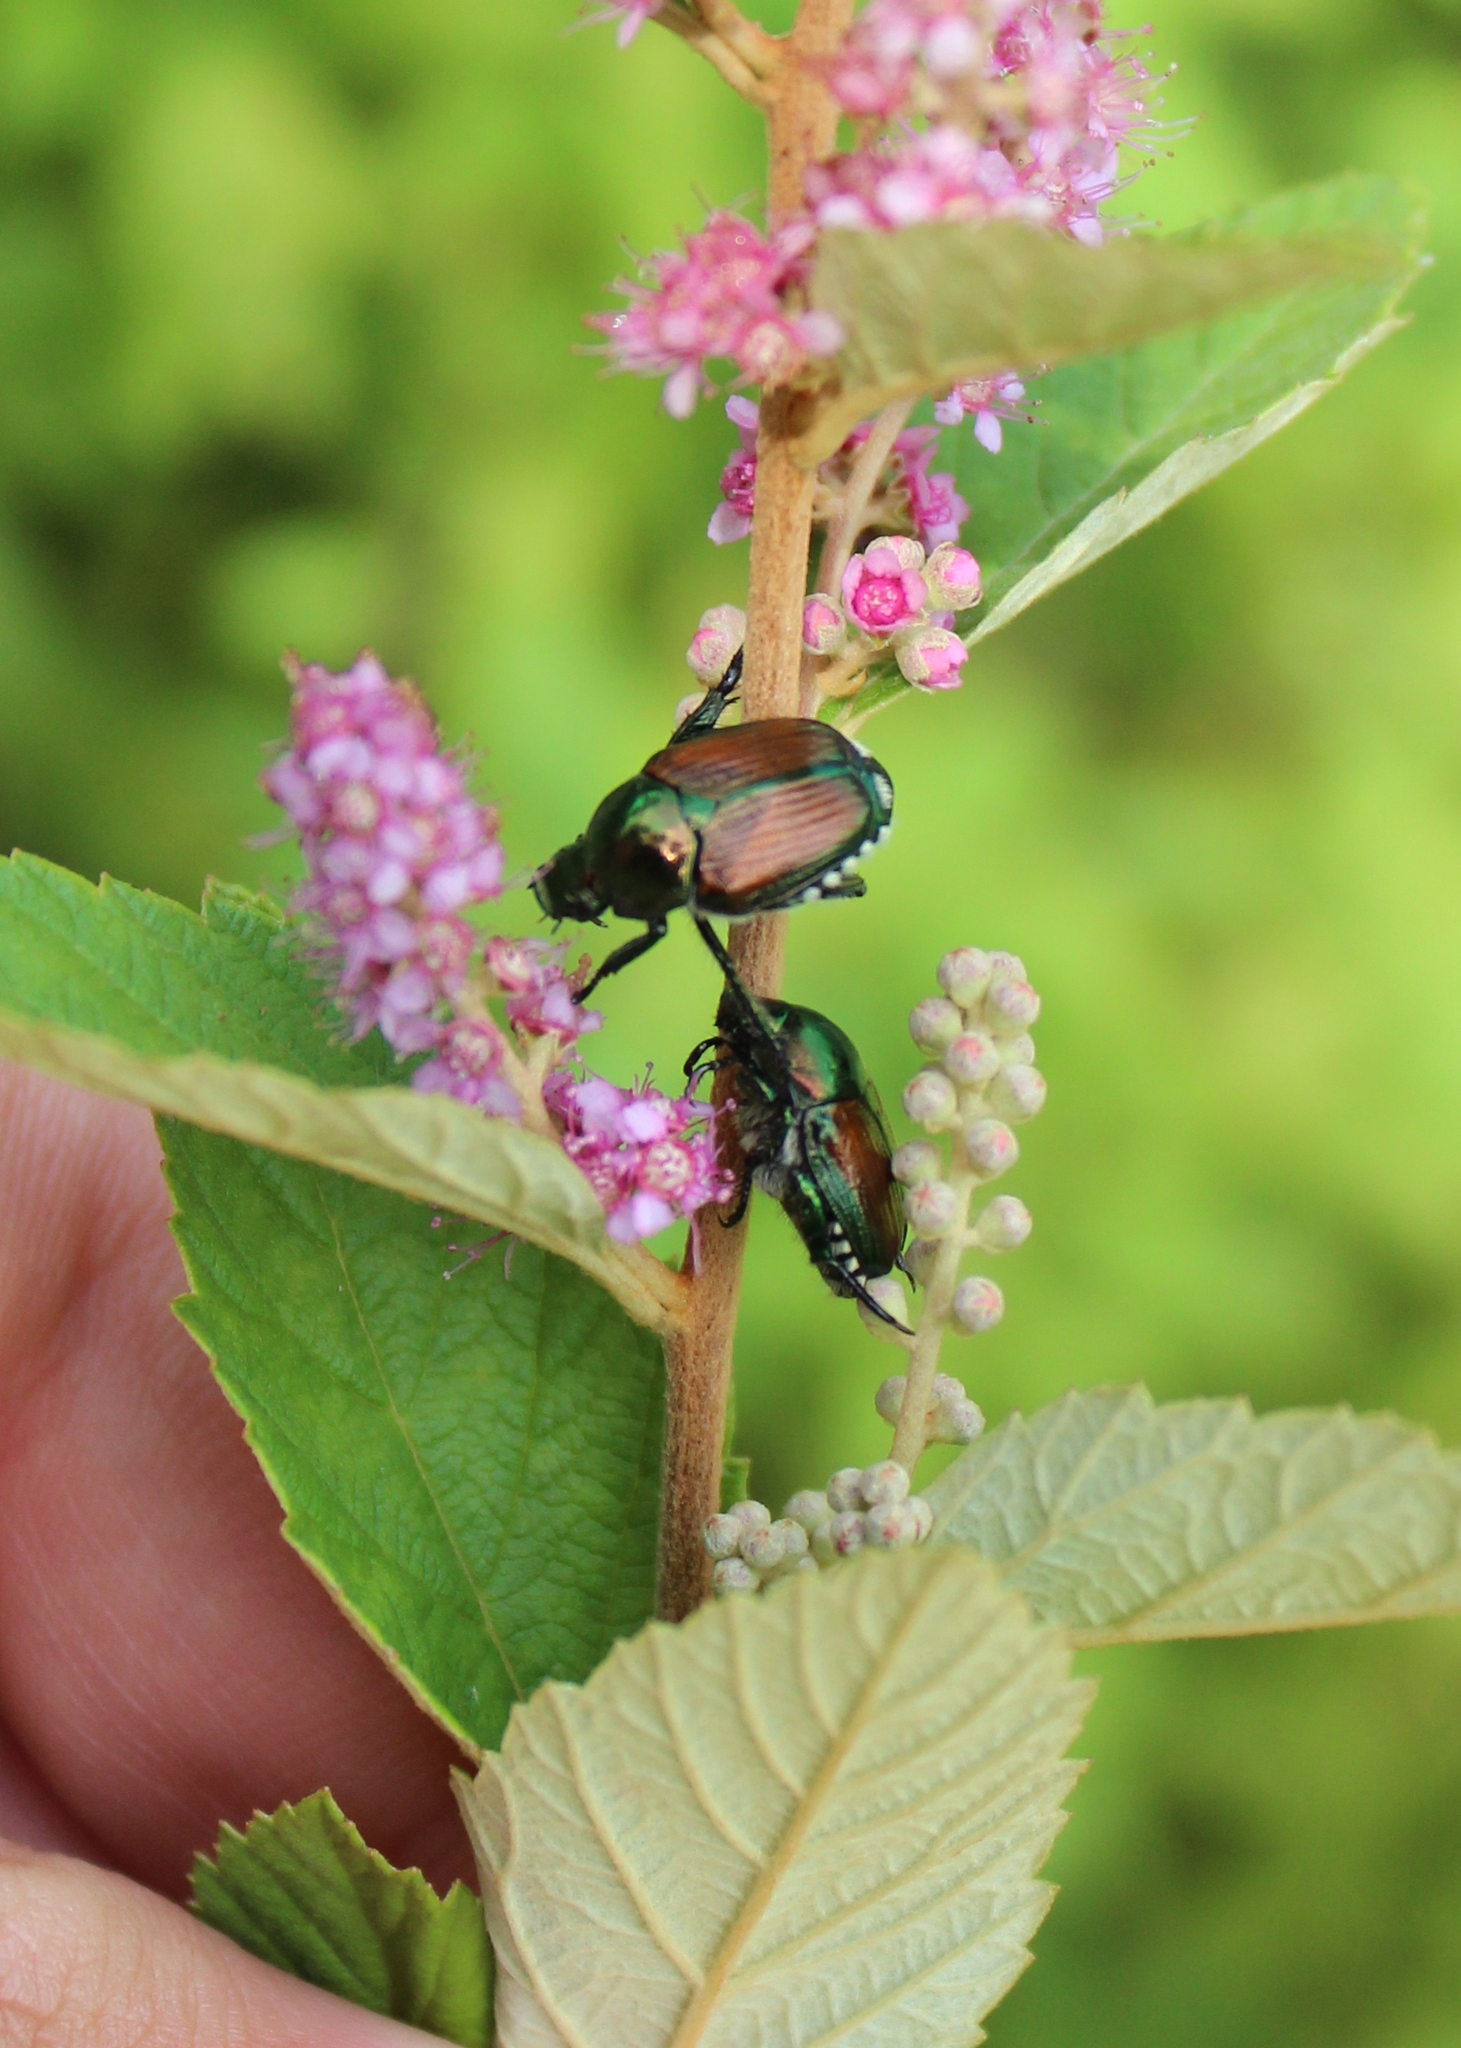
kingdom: Animalia
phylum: Arthropoda
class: Insecta
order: Coleoptera
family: Scarabaeidae
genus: Popillia
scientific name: Popillia japonica
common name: Japanese beetle
